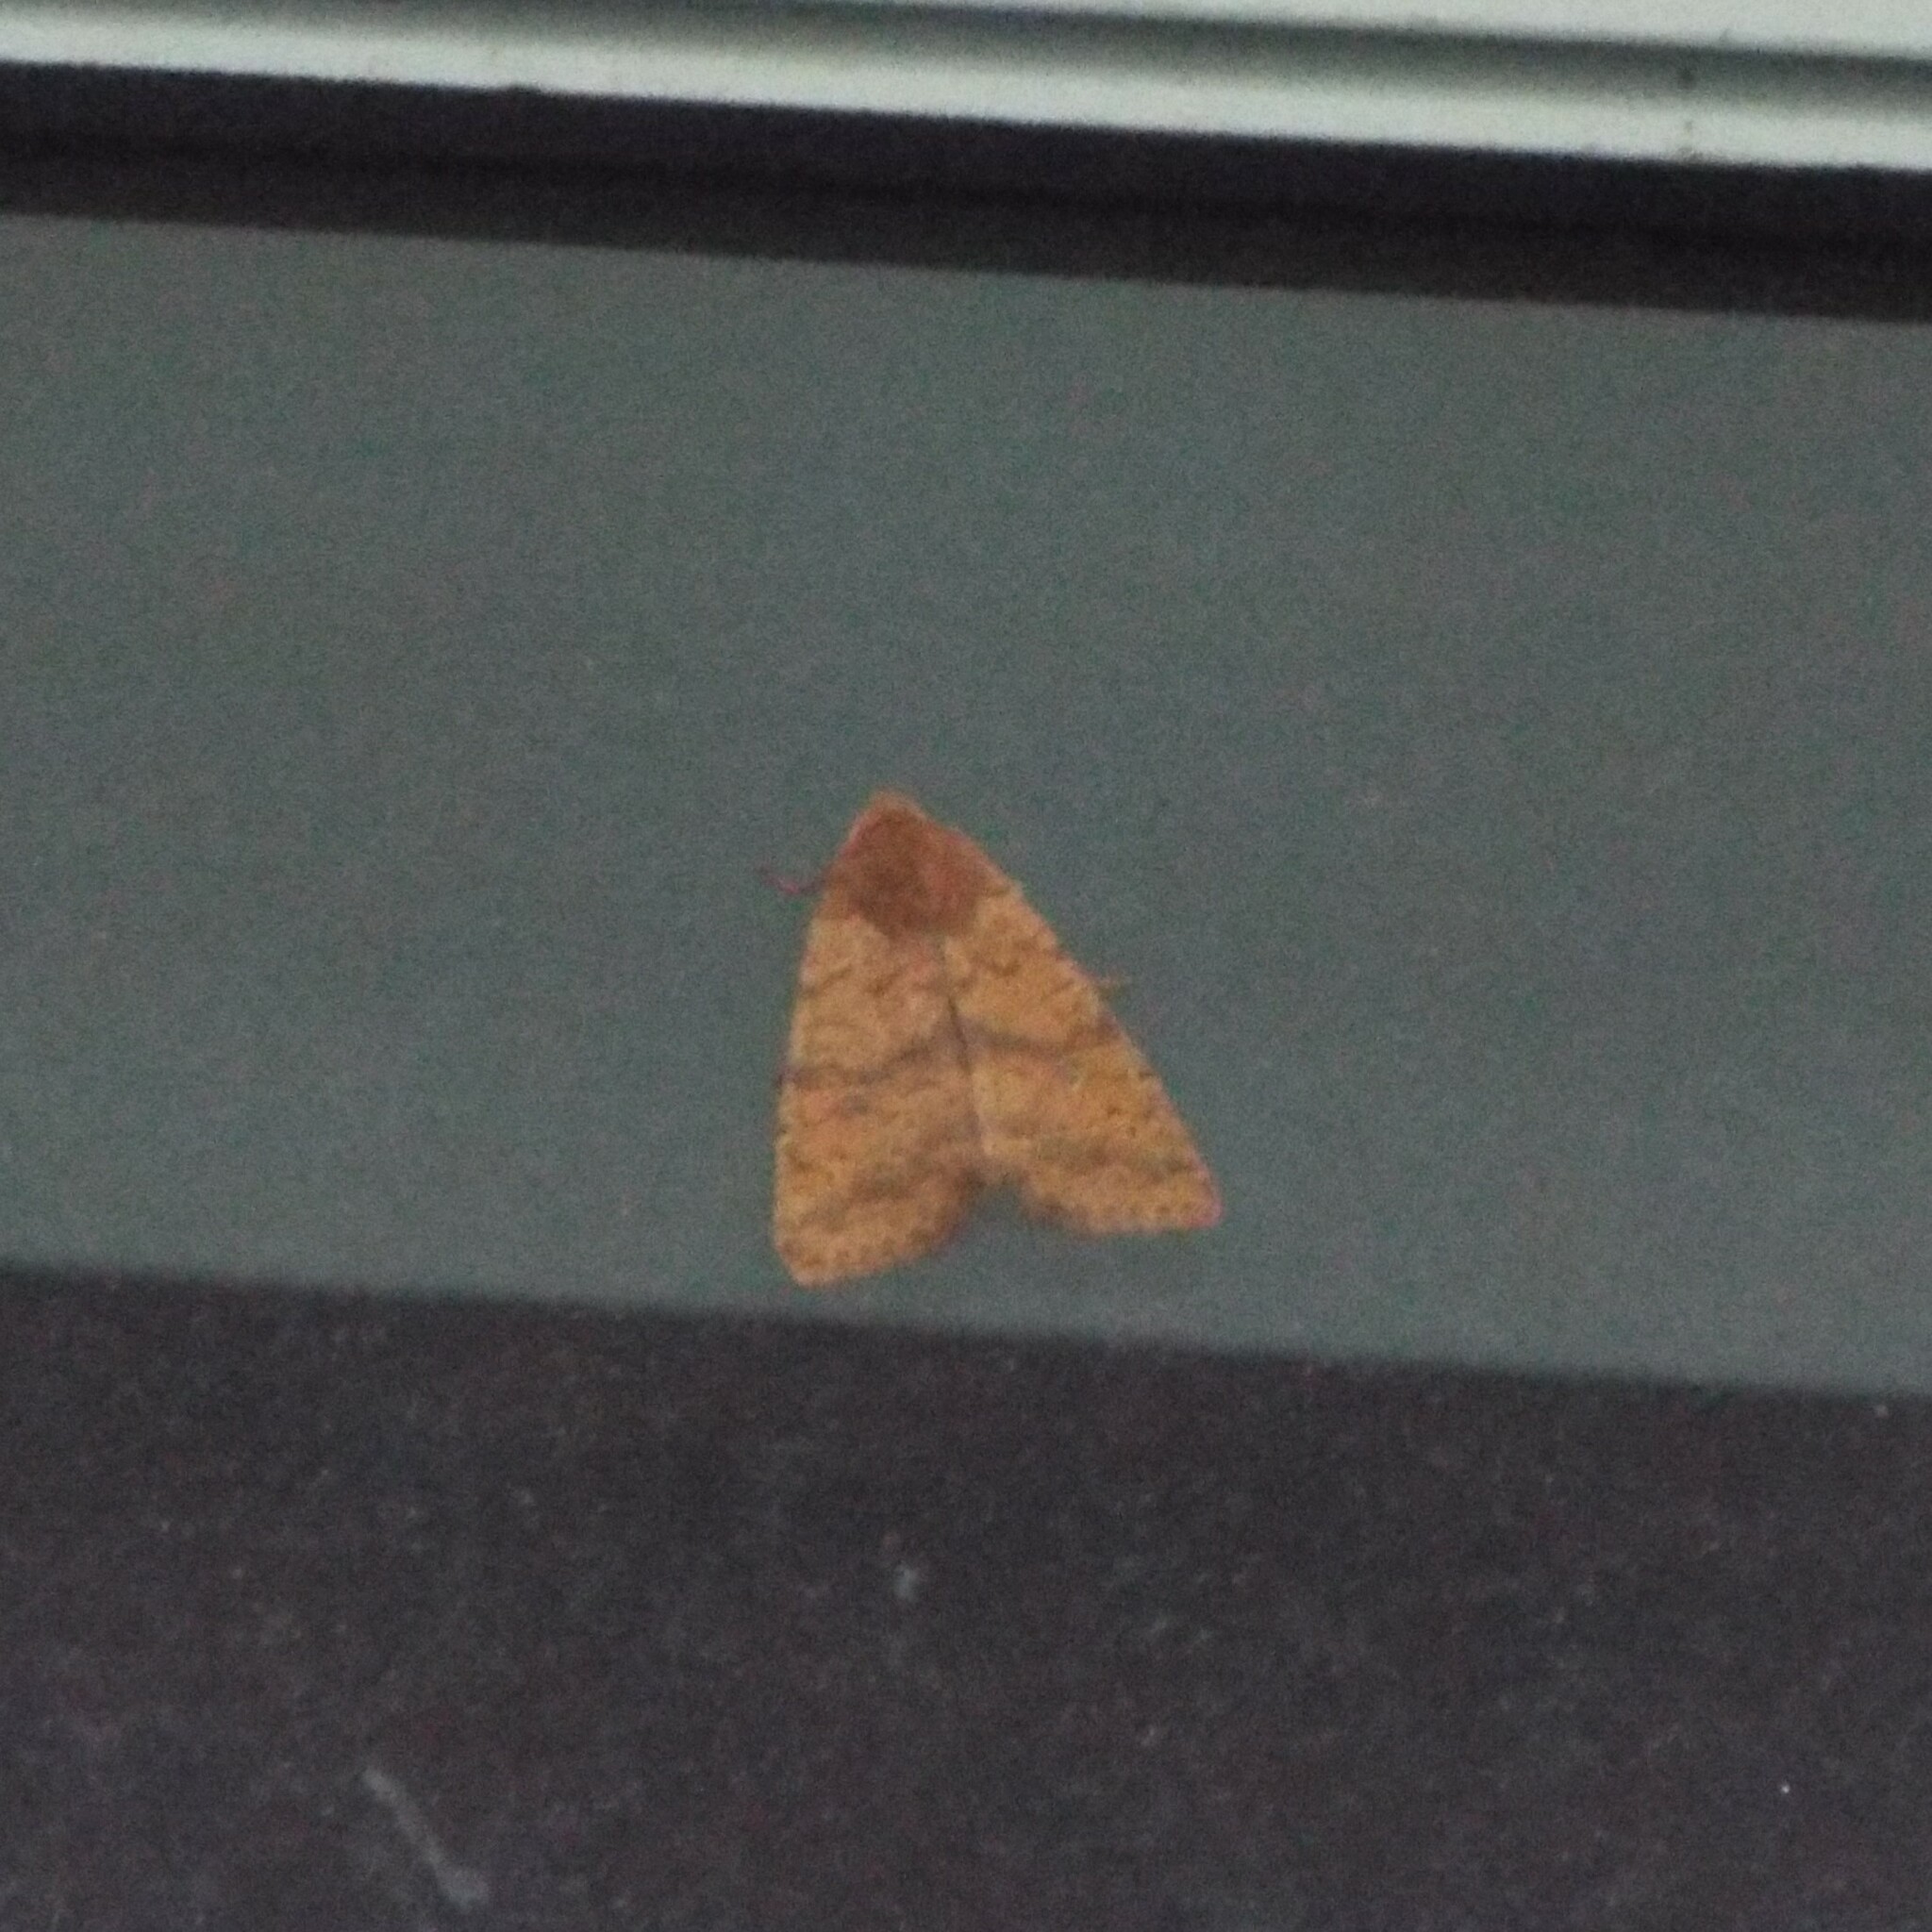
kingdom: Animalia
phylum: Arthropoda
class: Insecta
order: Lepidoptera
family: Noctuidae
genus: Agrochola
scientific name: Agrochola bicolorago
